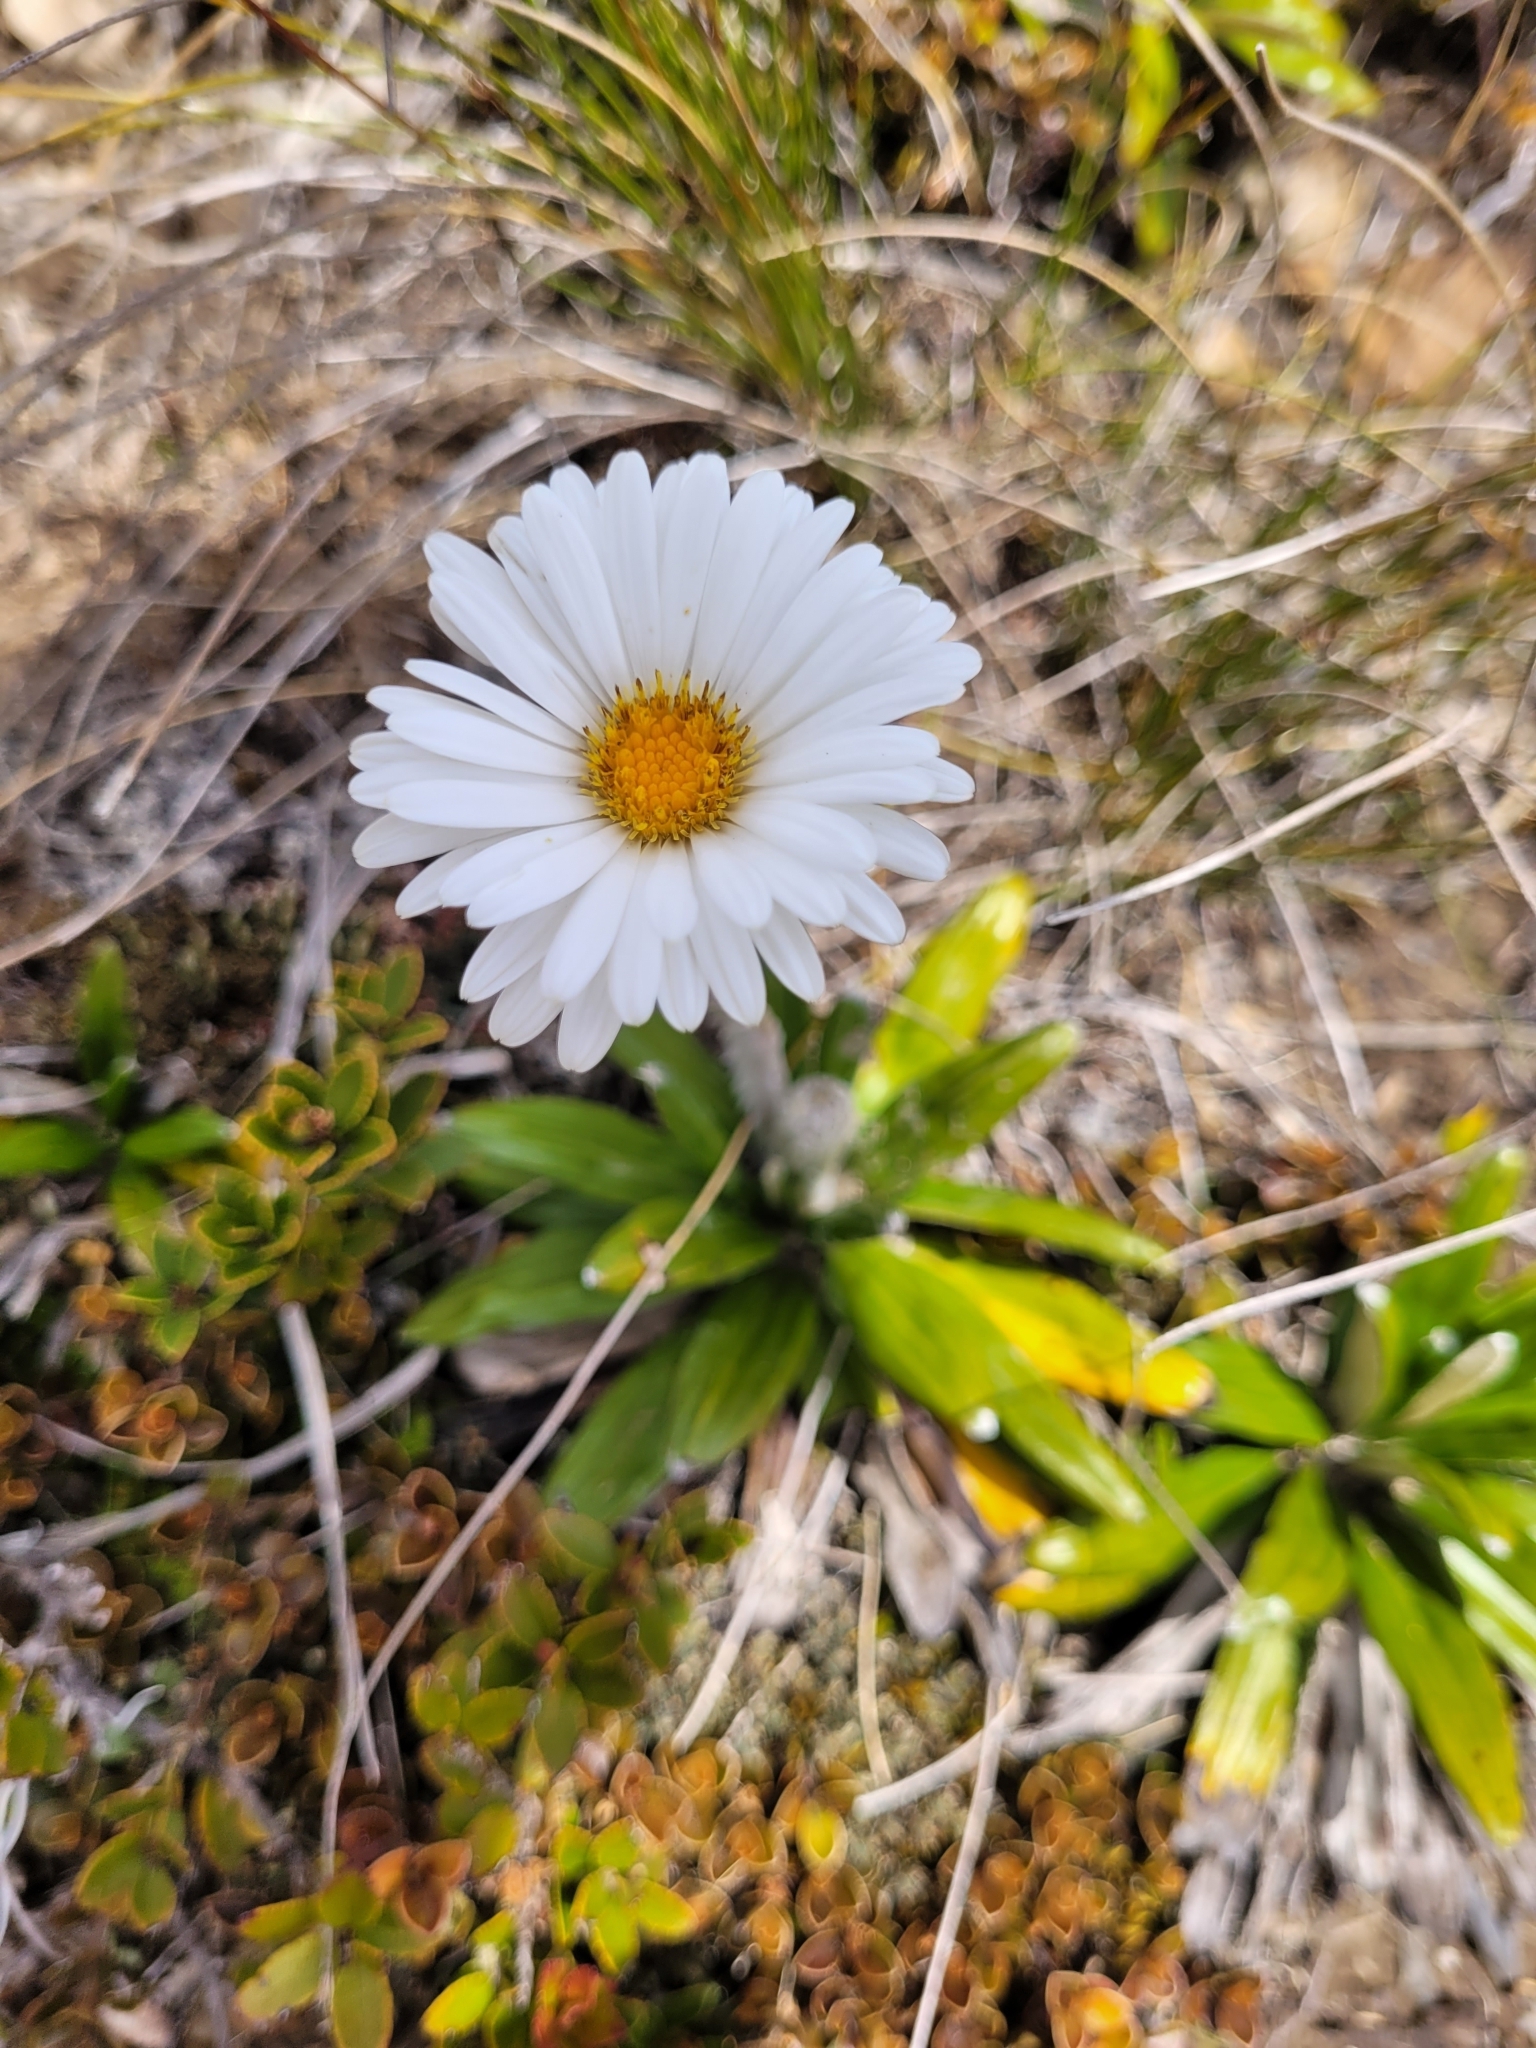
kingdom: Plantae
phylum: Tracheophyta
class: Magnoliopsida
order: Asterales
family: Asteraceae
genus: Celmisia
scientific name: Celmisia spectabilis
